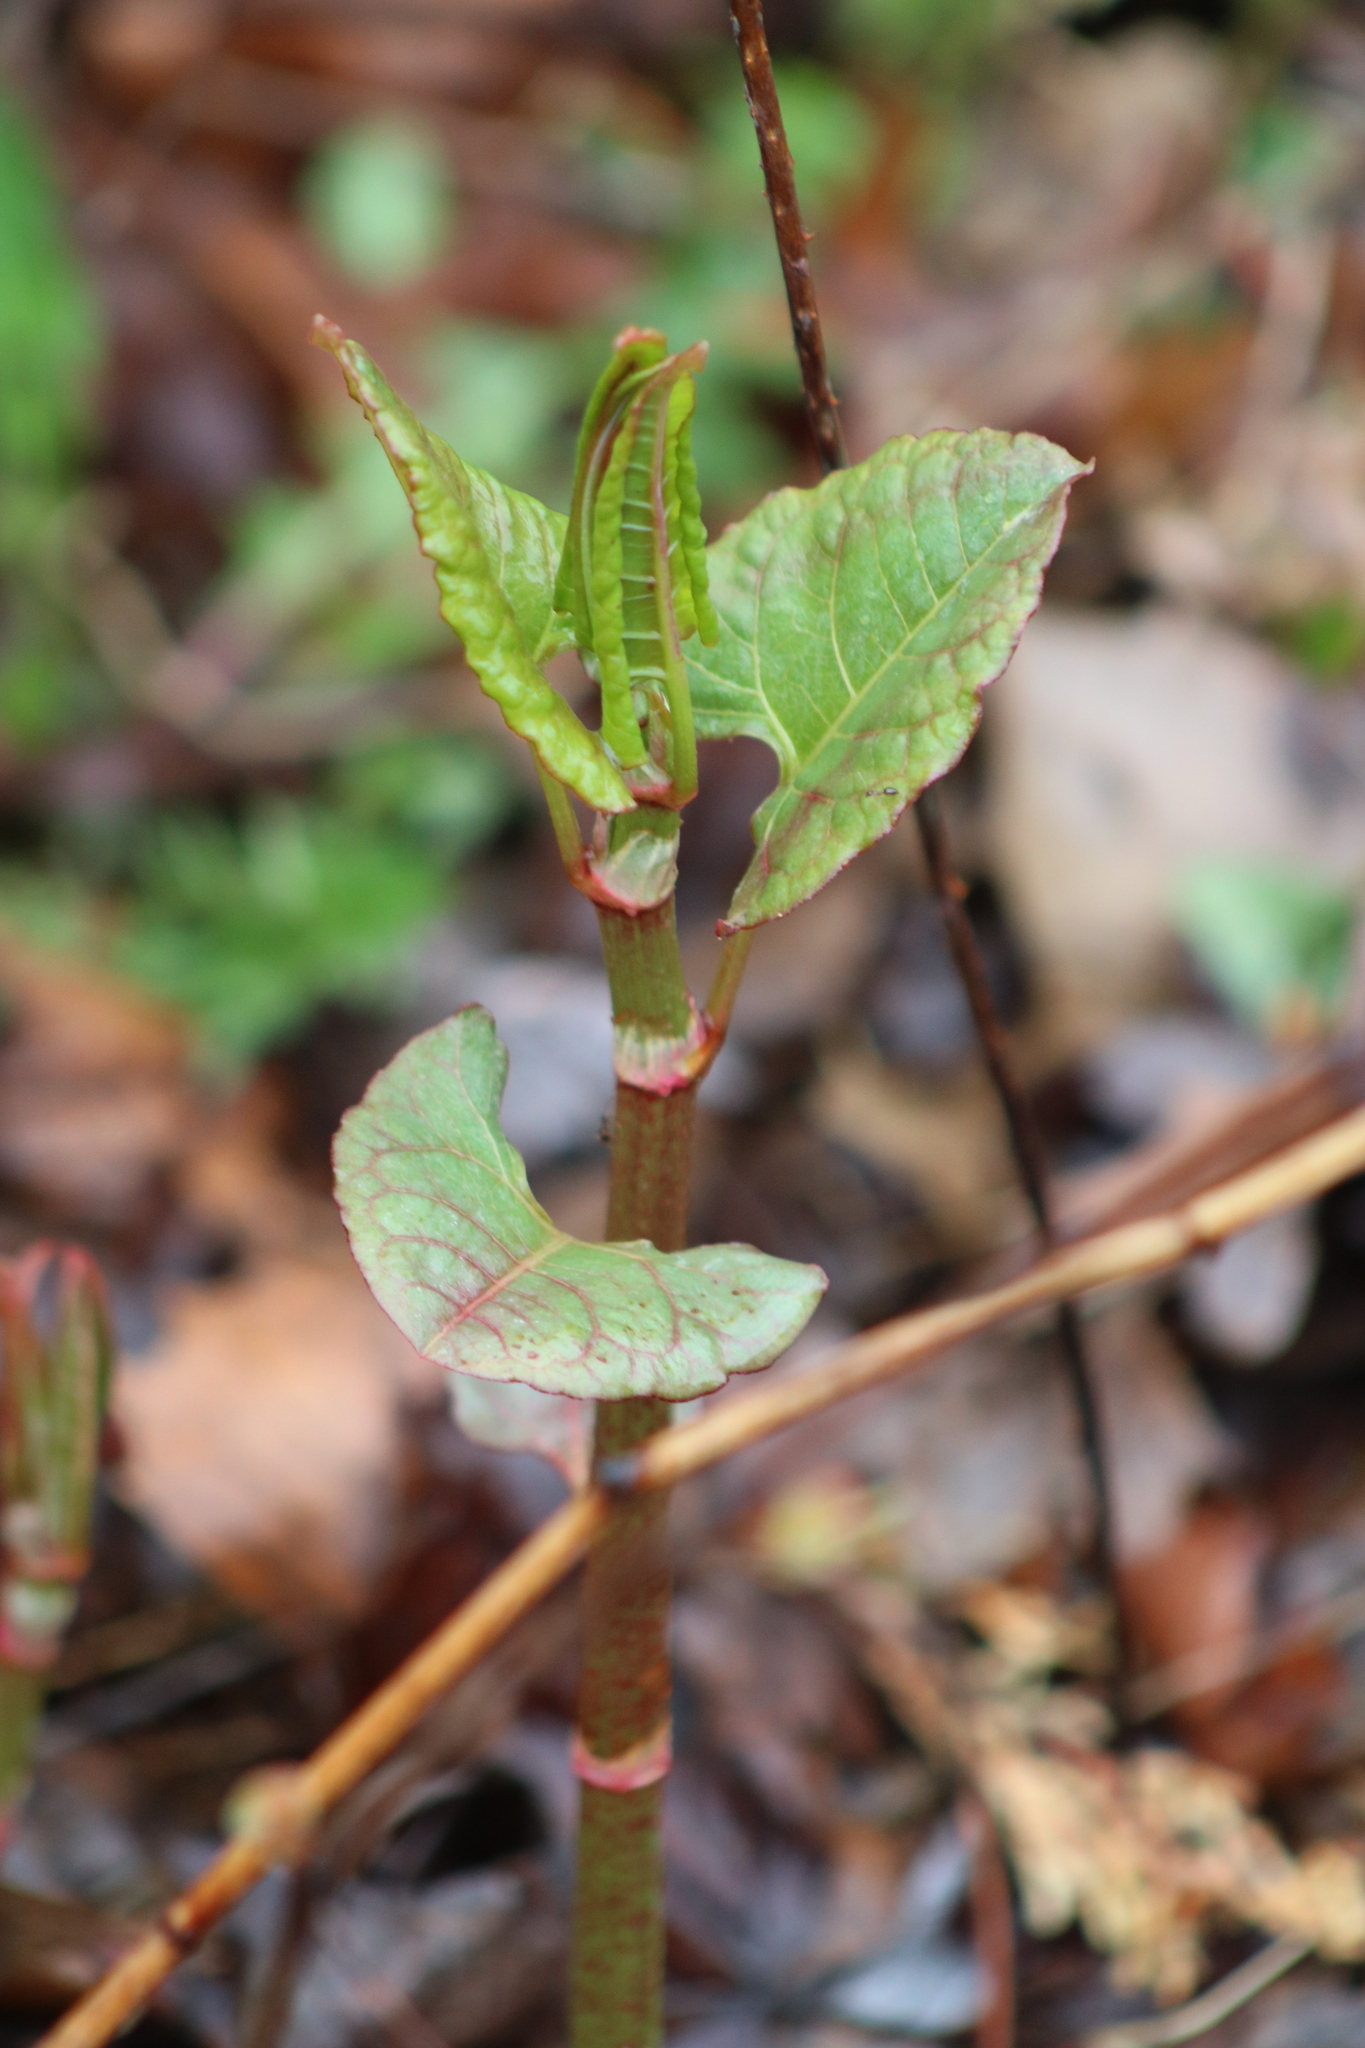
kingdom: Plantae
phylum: Tracheophyta
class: Magnoliopsida
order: Caryophyllales
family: Polygonaceae
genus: Reynoutria
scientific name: Reynoutria japonica
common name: Japanese knotweed
